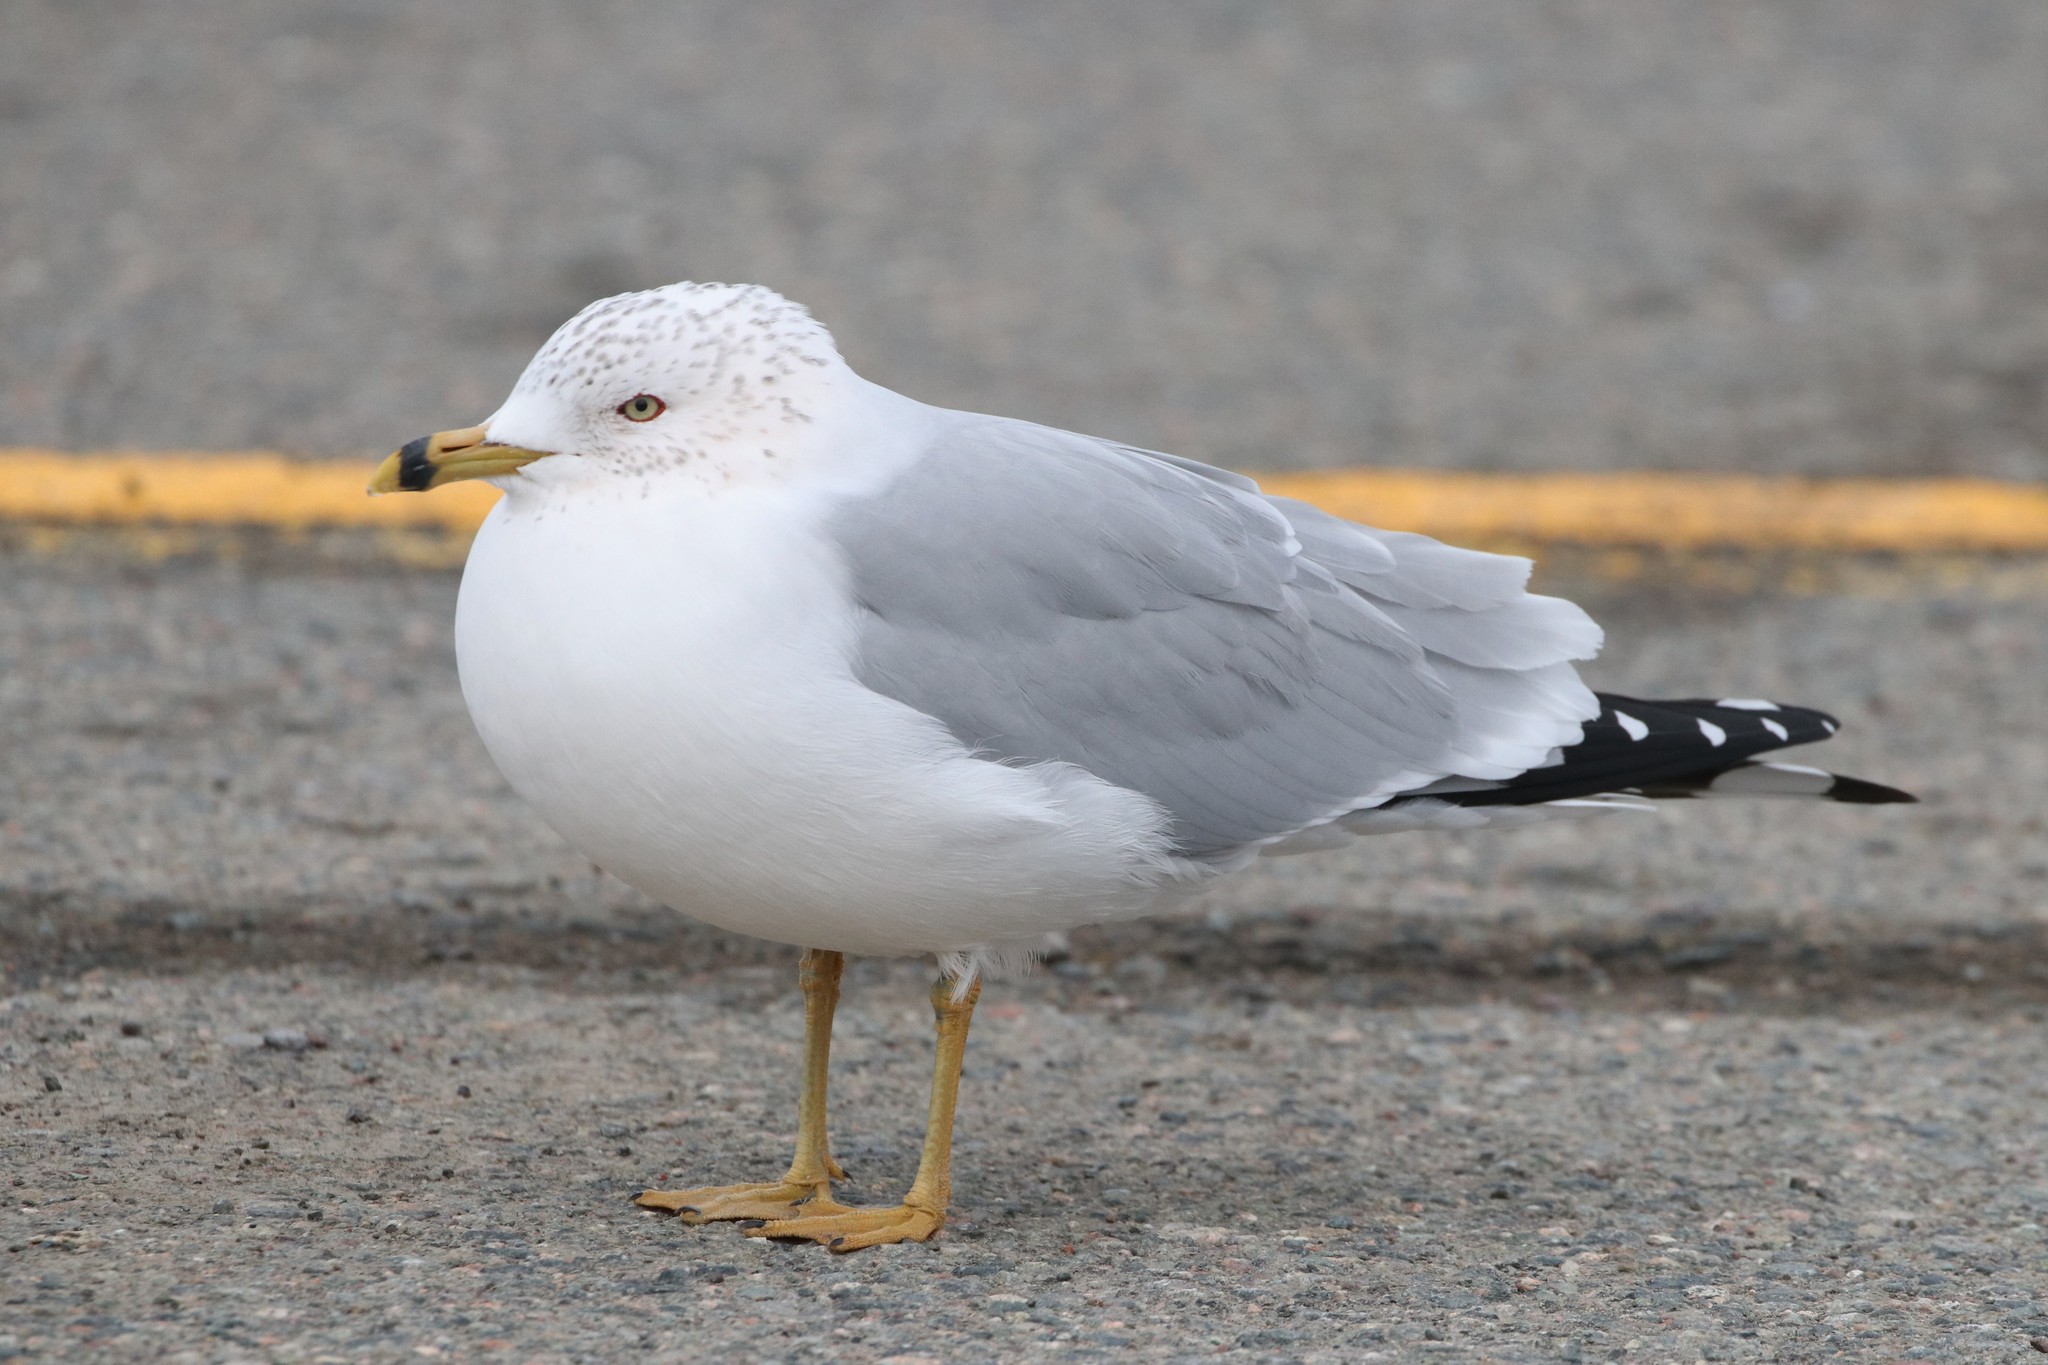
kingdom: Animalia
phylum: Chordata
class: Aves
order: Charadriiformes
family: Laridae
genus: Larus
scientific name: Larus delawarensis
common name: Ring-billed gull
